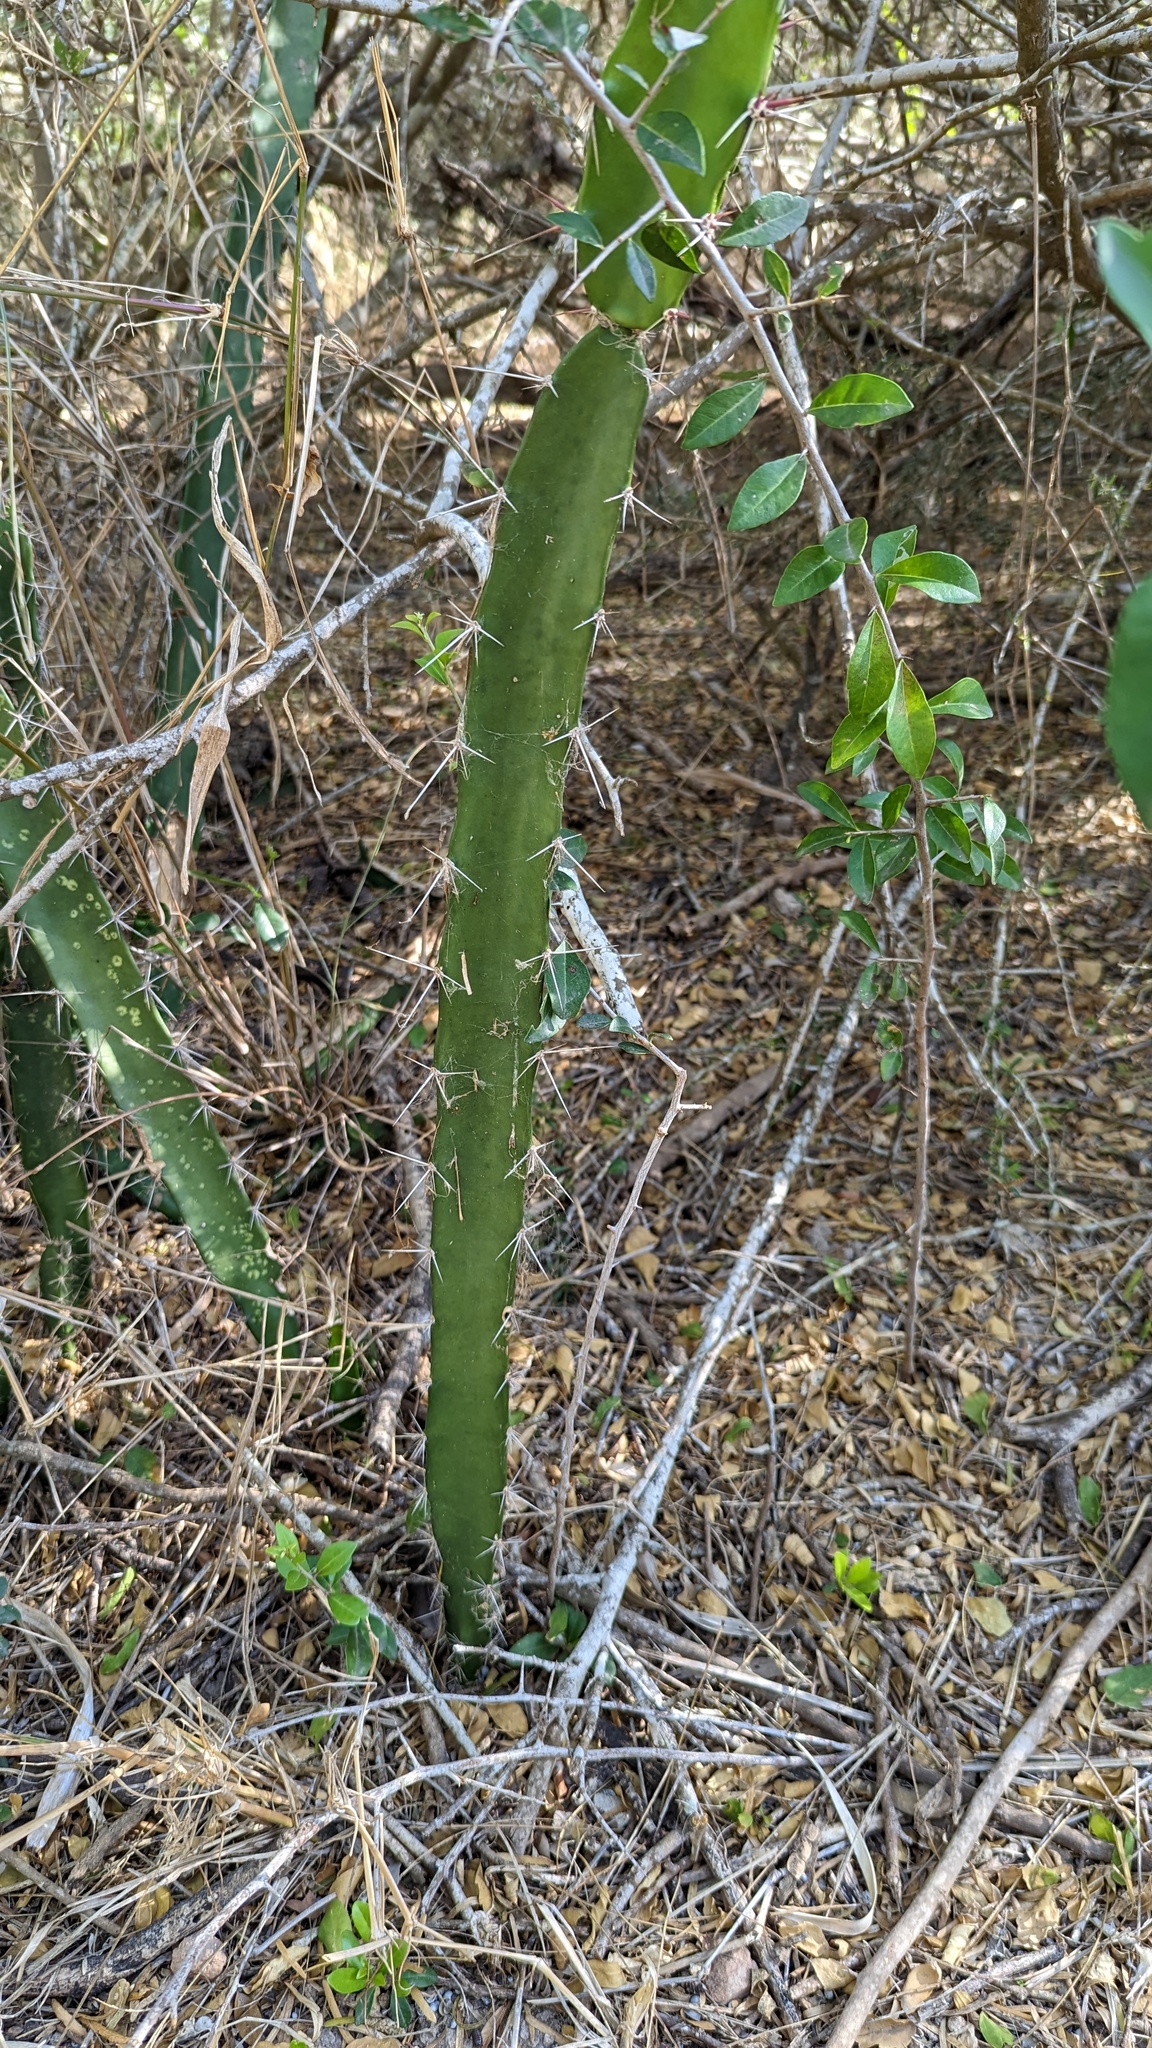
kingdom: Plantae
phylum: Tracheophyta
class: Magnoliopsida
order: Caryophyllales
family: Cactaceae
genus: Acanthocereus
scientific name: Acanthocereus tetragonus
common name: Triangle cactus
